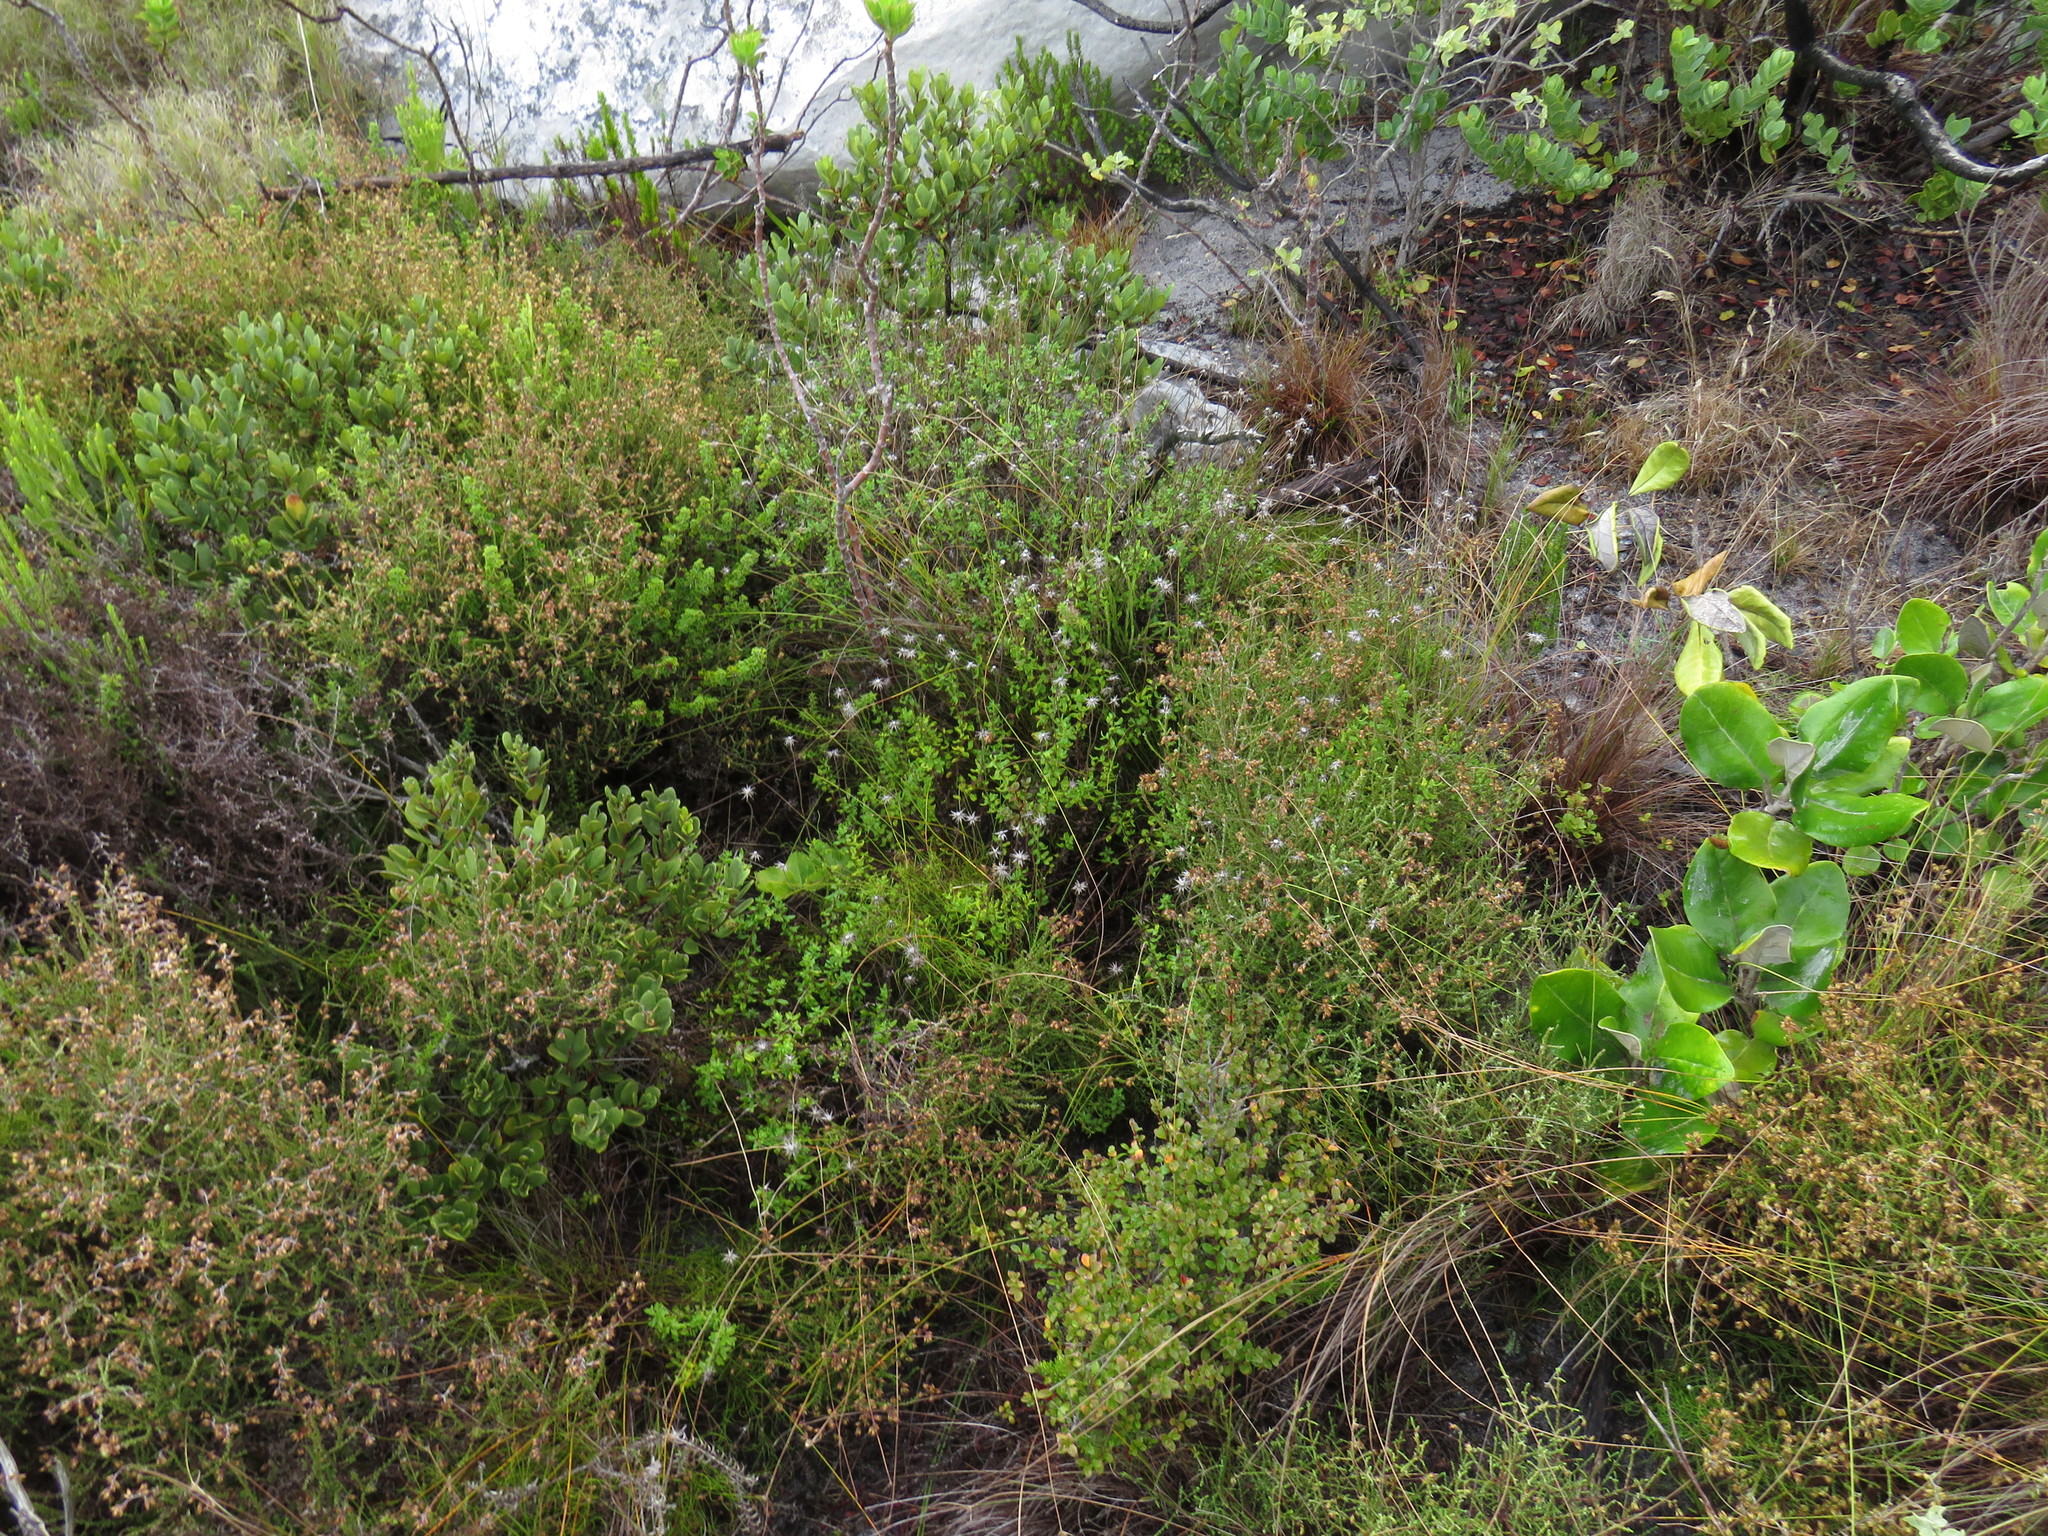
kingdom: Plantae
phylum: Tracheophyta
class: Magnoliopsida
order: Asterales
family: Asteraceae
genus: Felicia
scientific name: Felicia aethiopica
